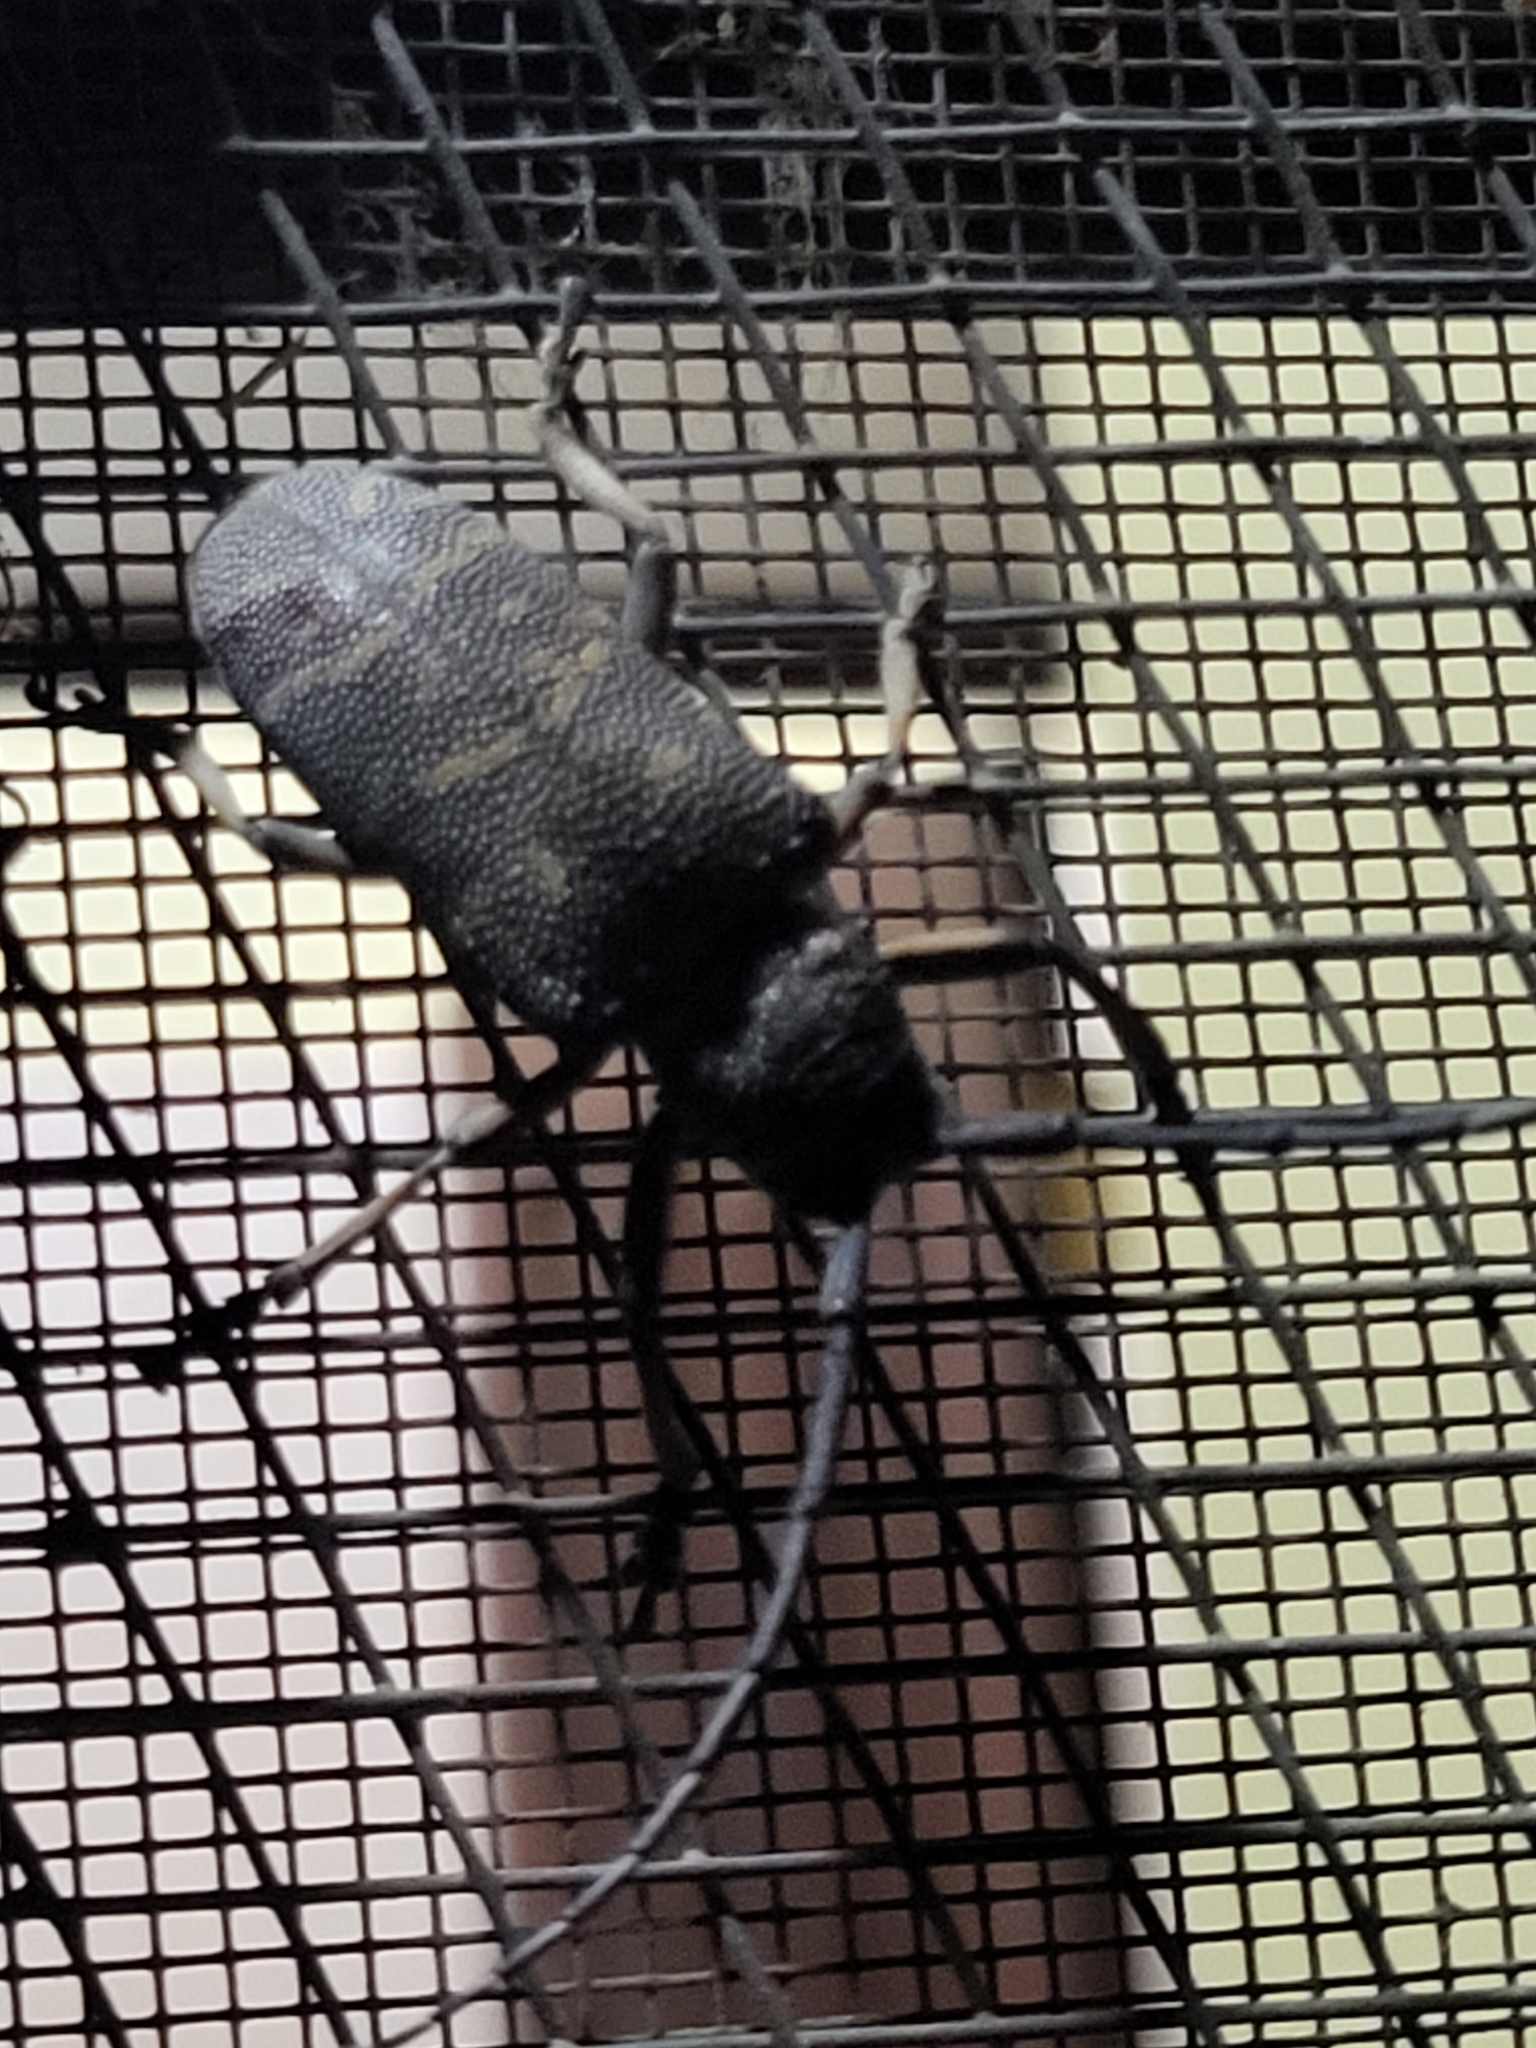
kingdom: Animalia
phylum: Arthropoda
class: Insecta
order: Coleoptera
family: Cerambycidae
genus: Titoceres
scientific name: Titoceres jaspideus
